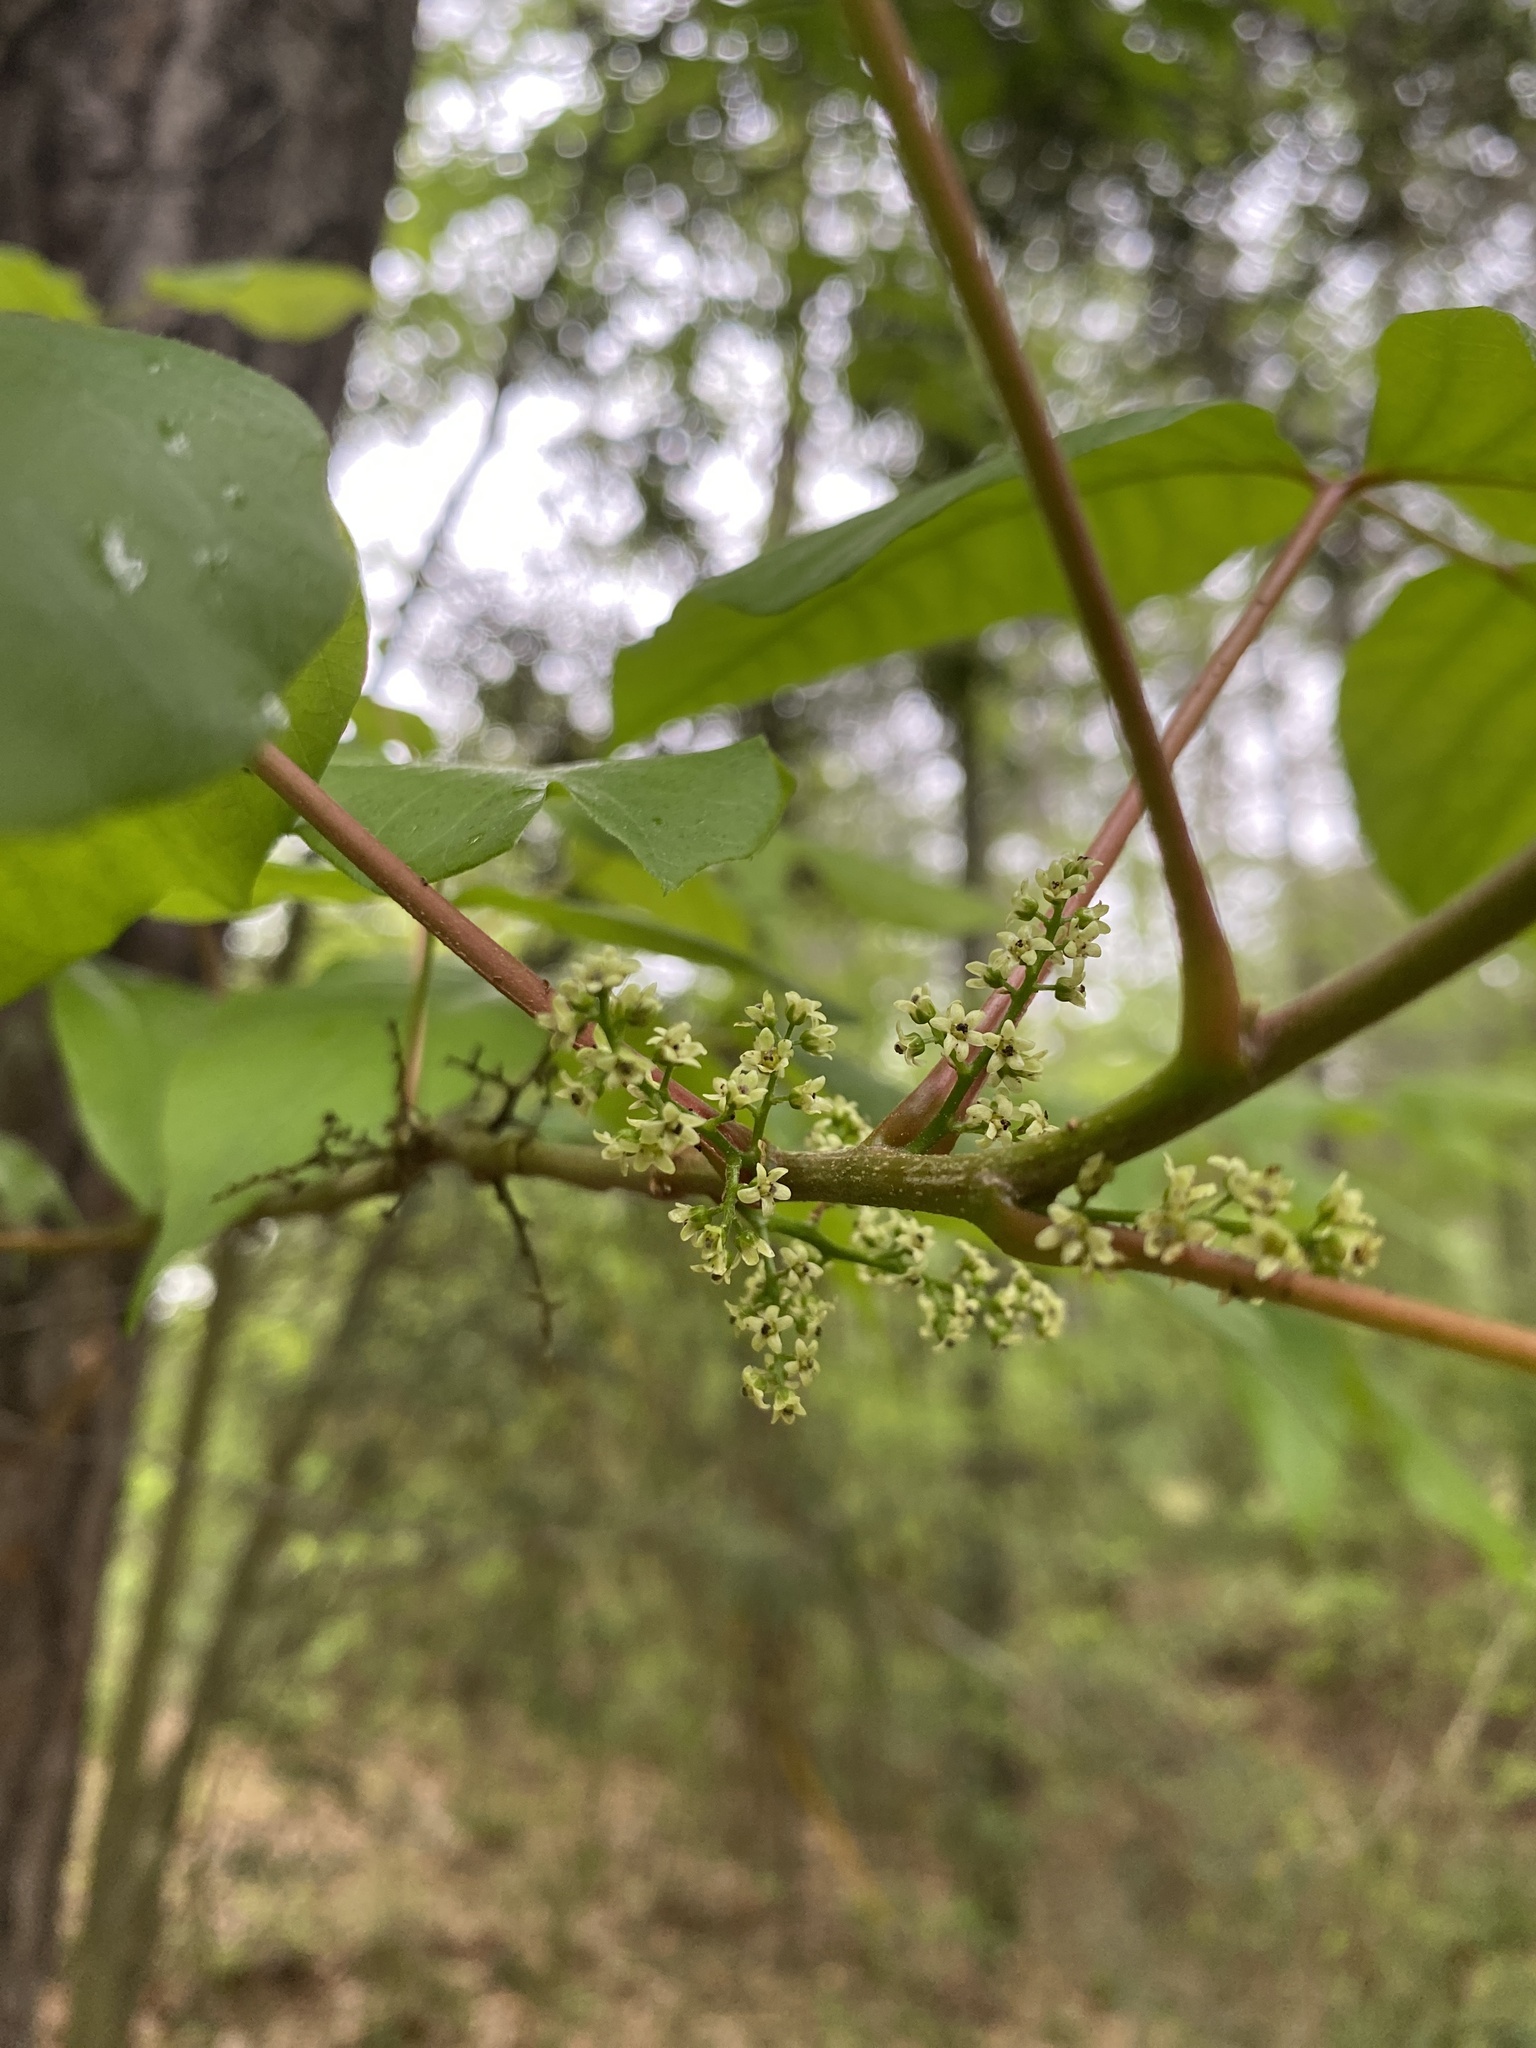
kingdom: Plantae
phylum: Tracheophyta
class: Magnoliopsida
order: Sapindales
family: Anacardiaceae
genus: Toxicodendron
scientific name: Toxicodendron radicans
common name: Poison ivy
